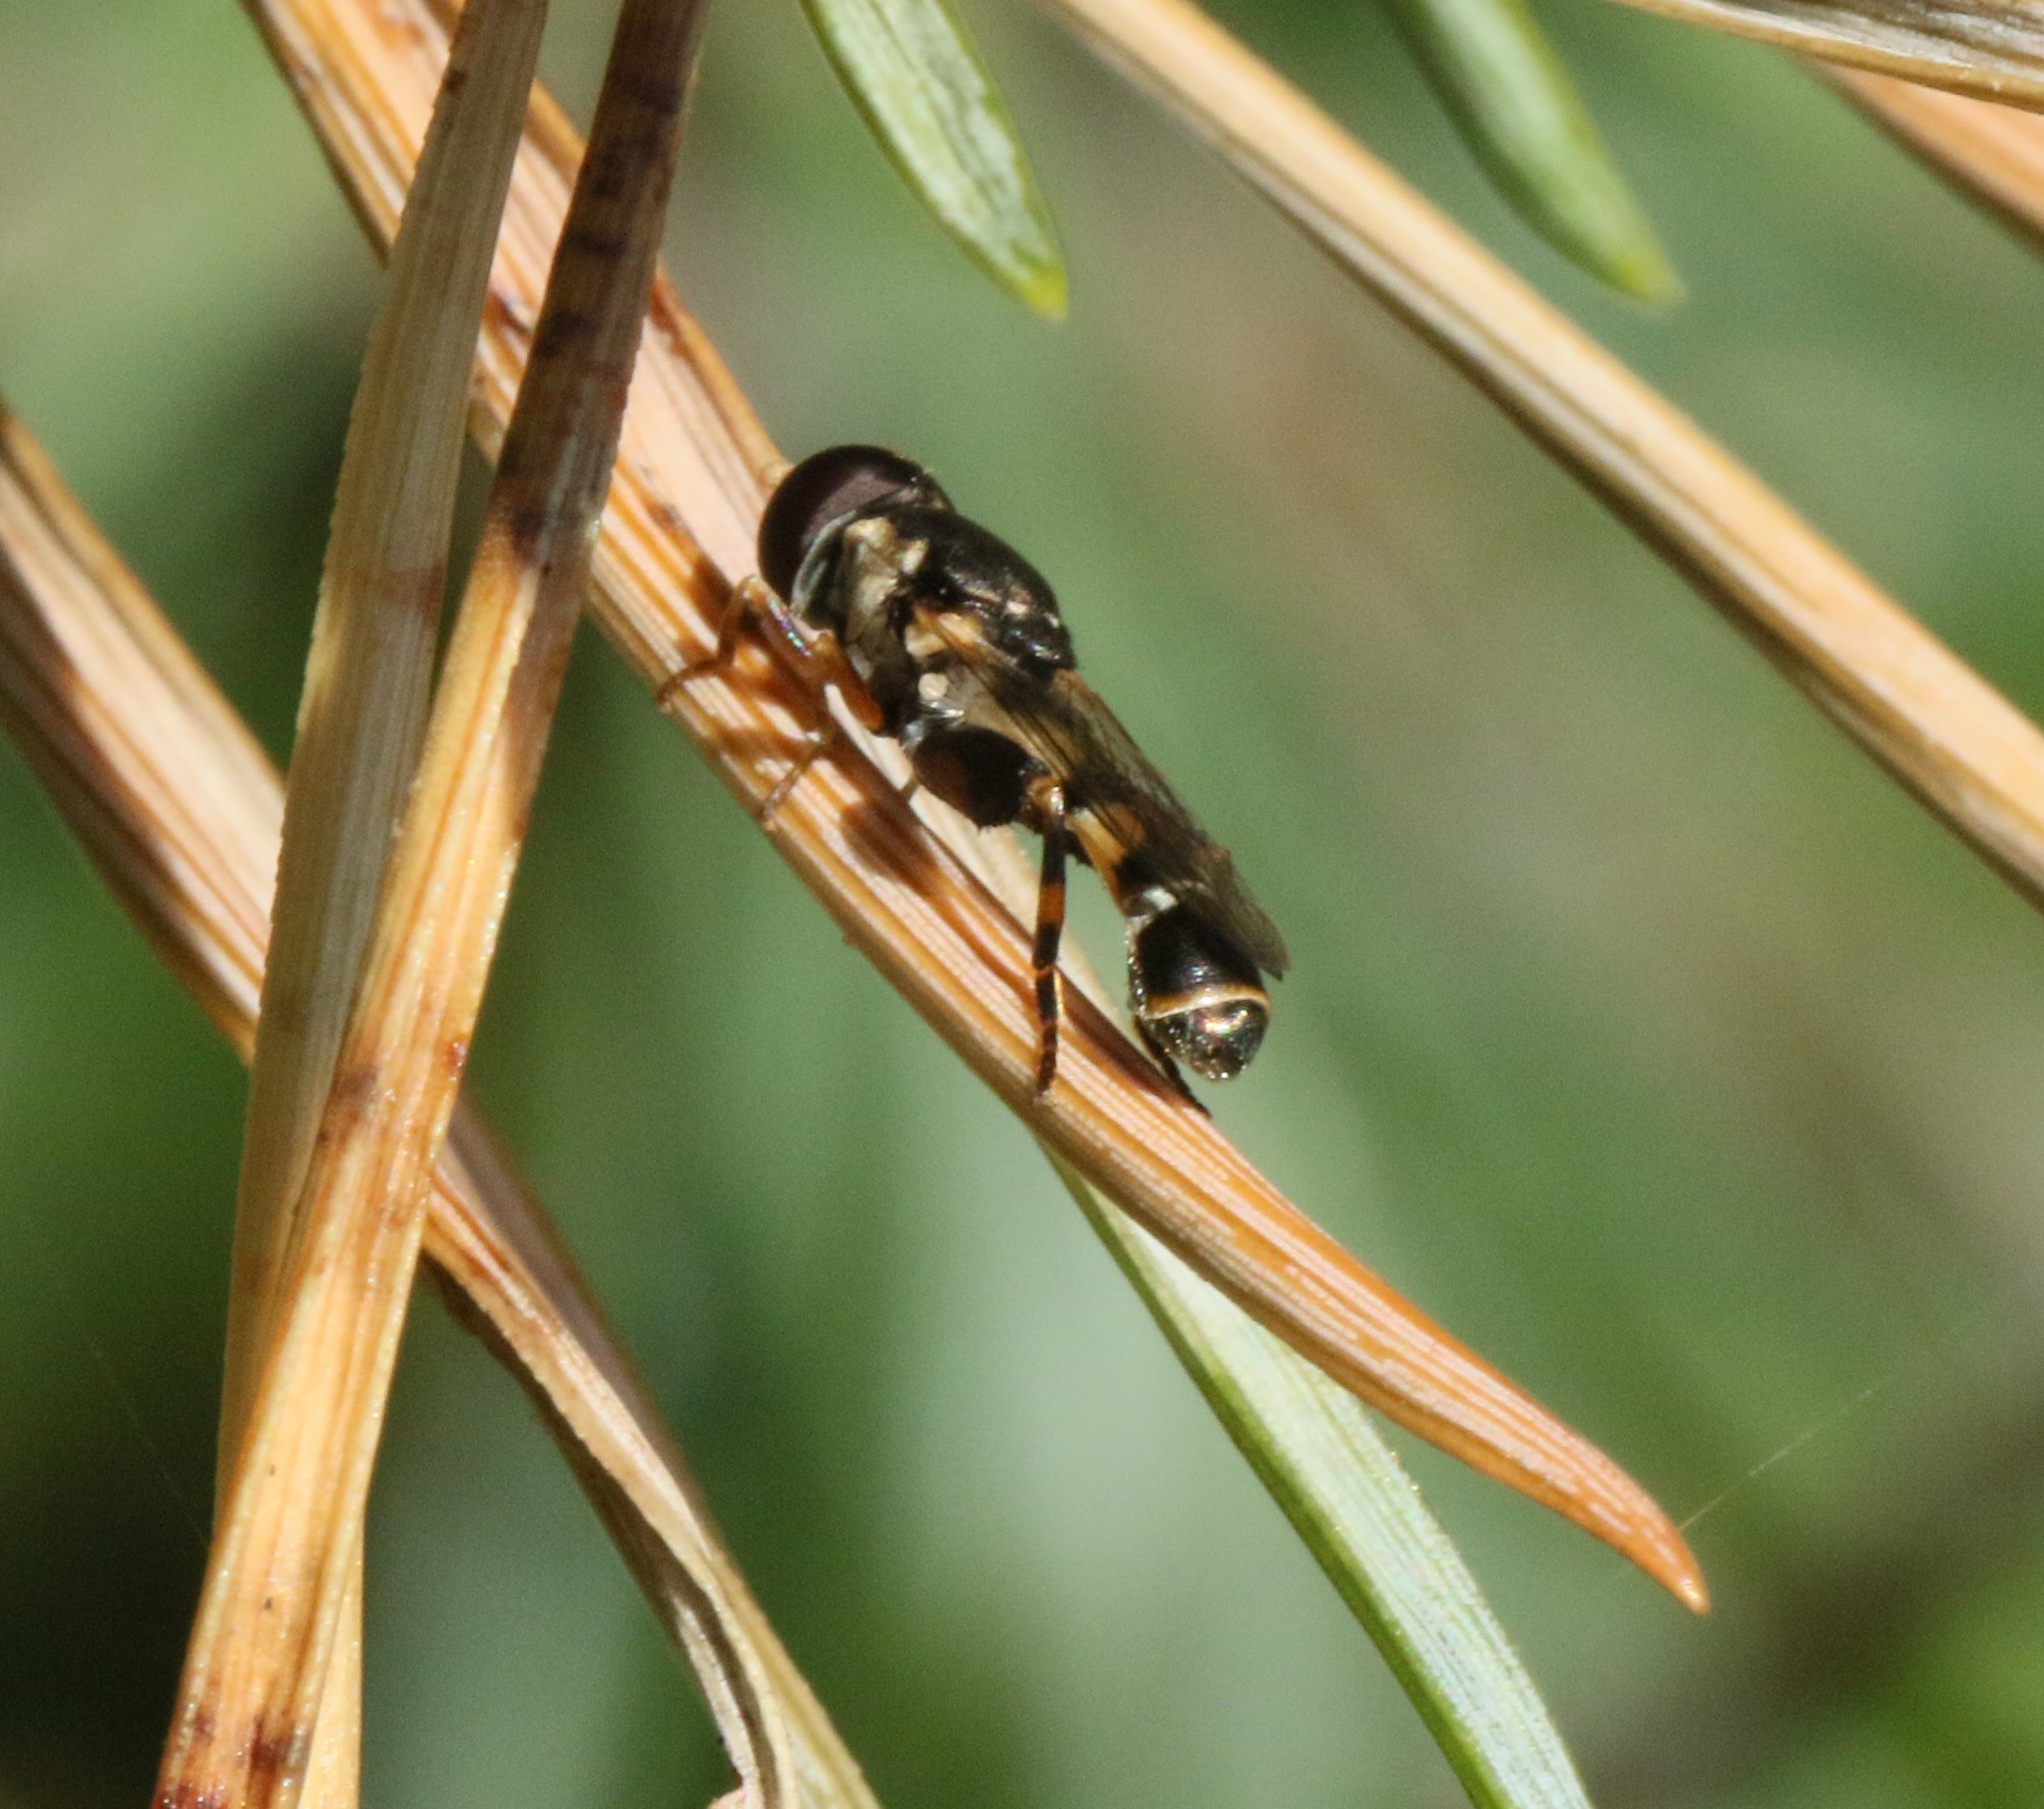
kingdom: Animalia
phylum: Arthropoda
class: Insecta
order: Diptera
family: Syrphidae
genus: Syritta
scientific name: Syritta pipiens
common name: Hover fly
